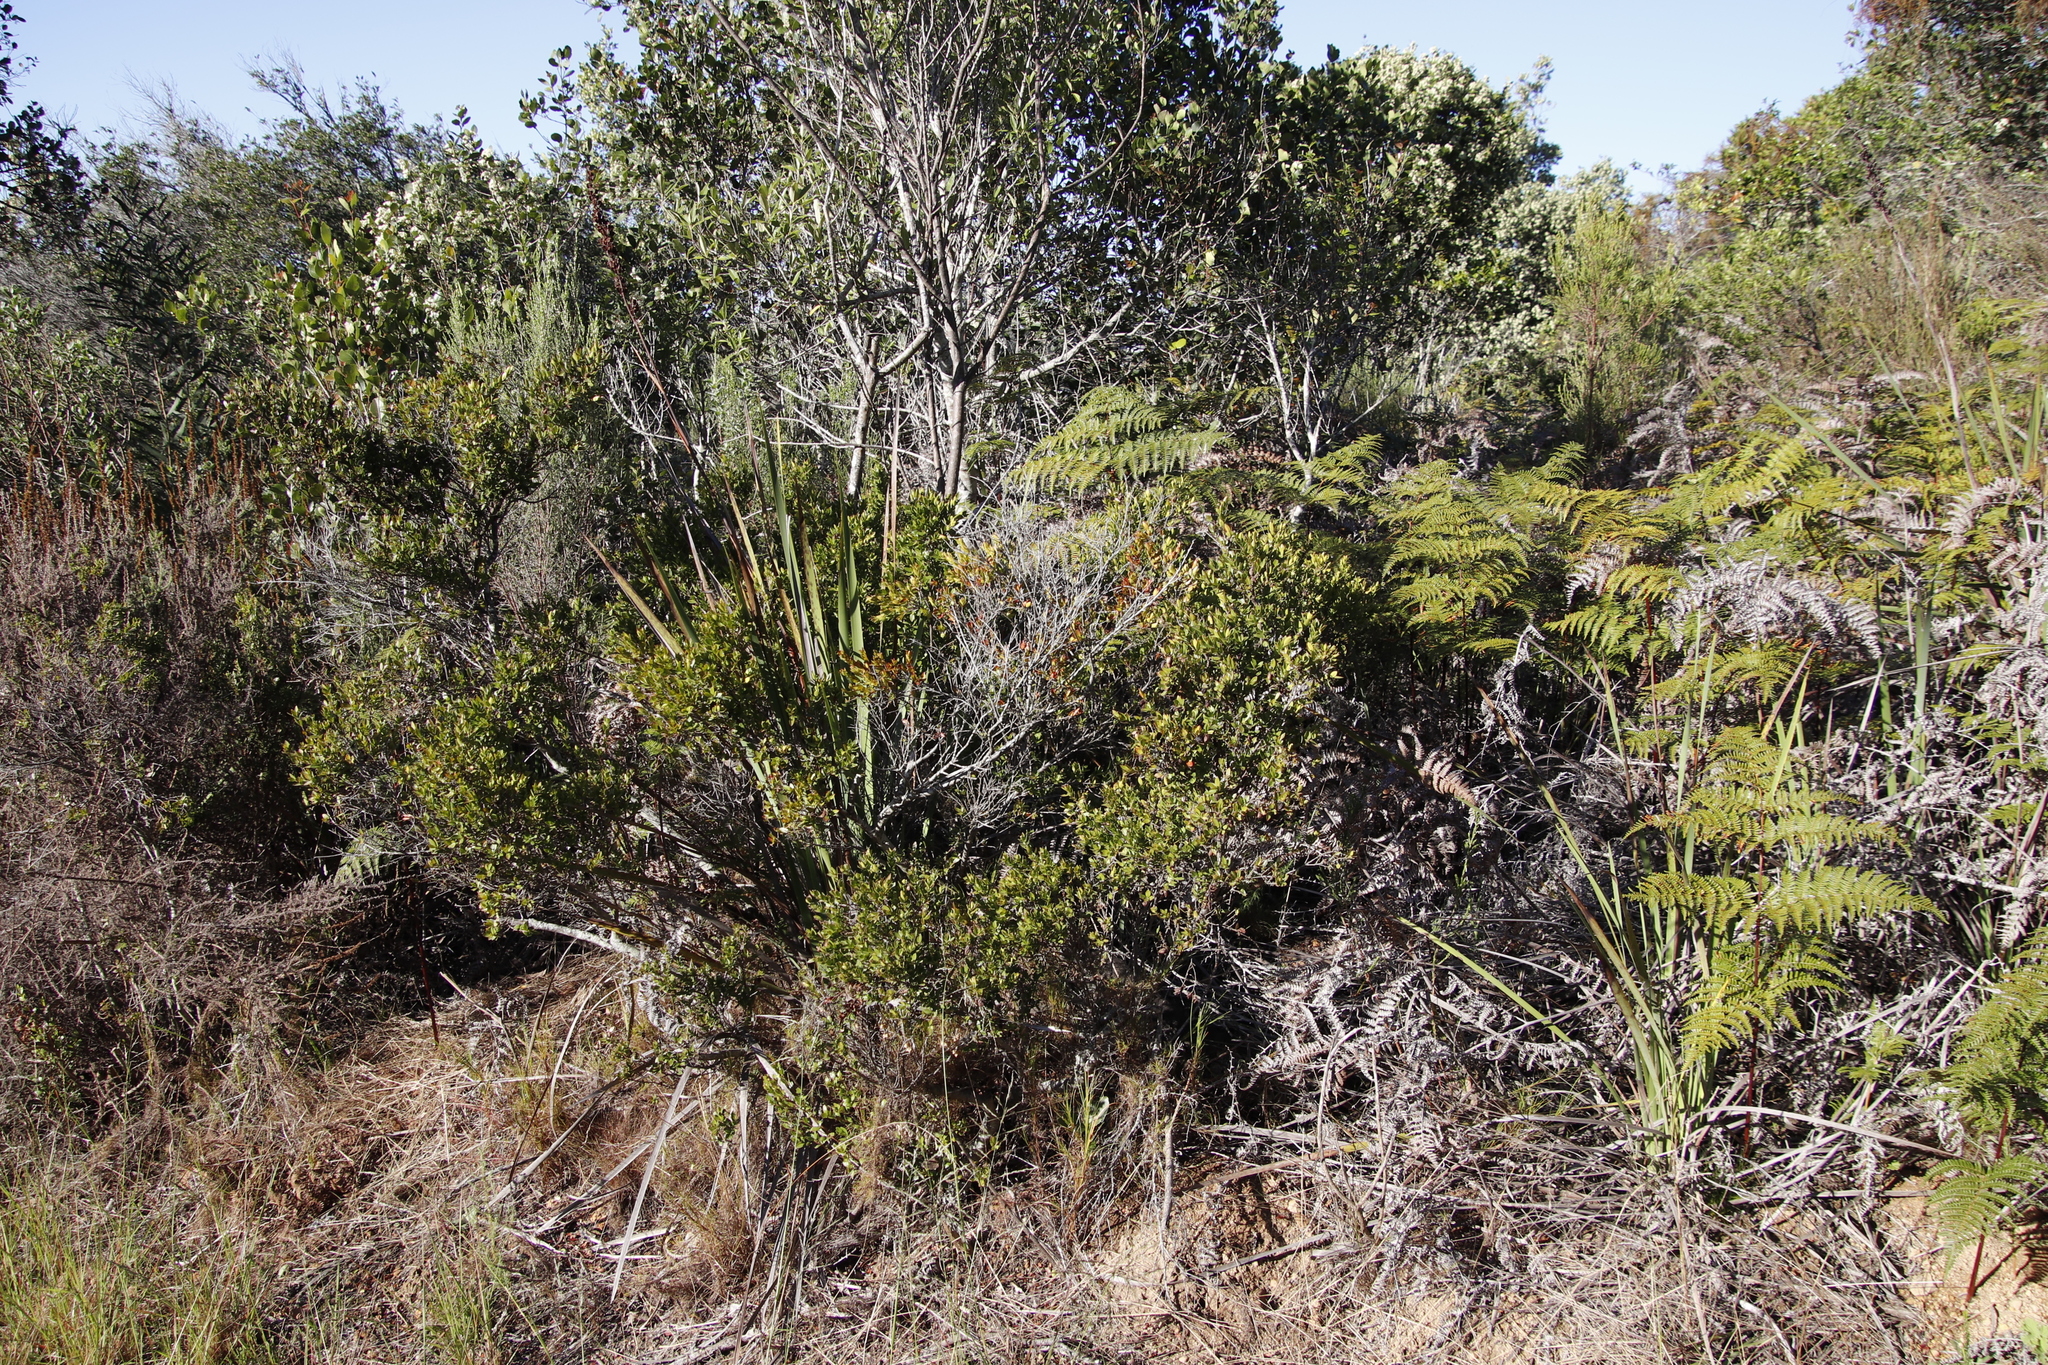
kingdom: Plantae
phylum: Tracheophyta
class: Magnoliopsida
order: Ericales
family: Ebenaceae
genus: Diospyros
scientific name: Diospyros glabra
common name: Fynbos star apple
